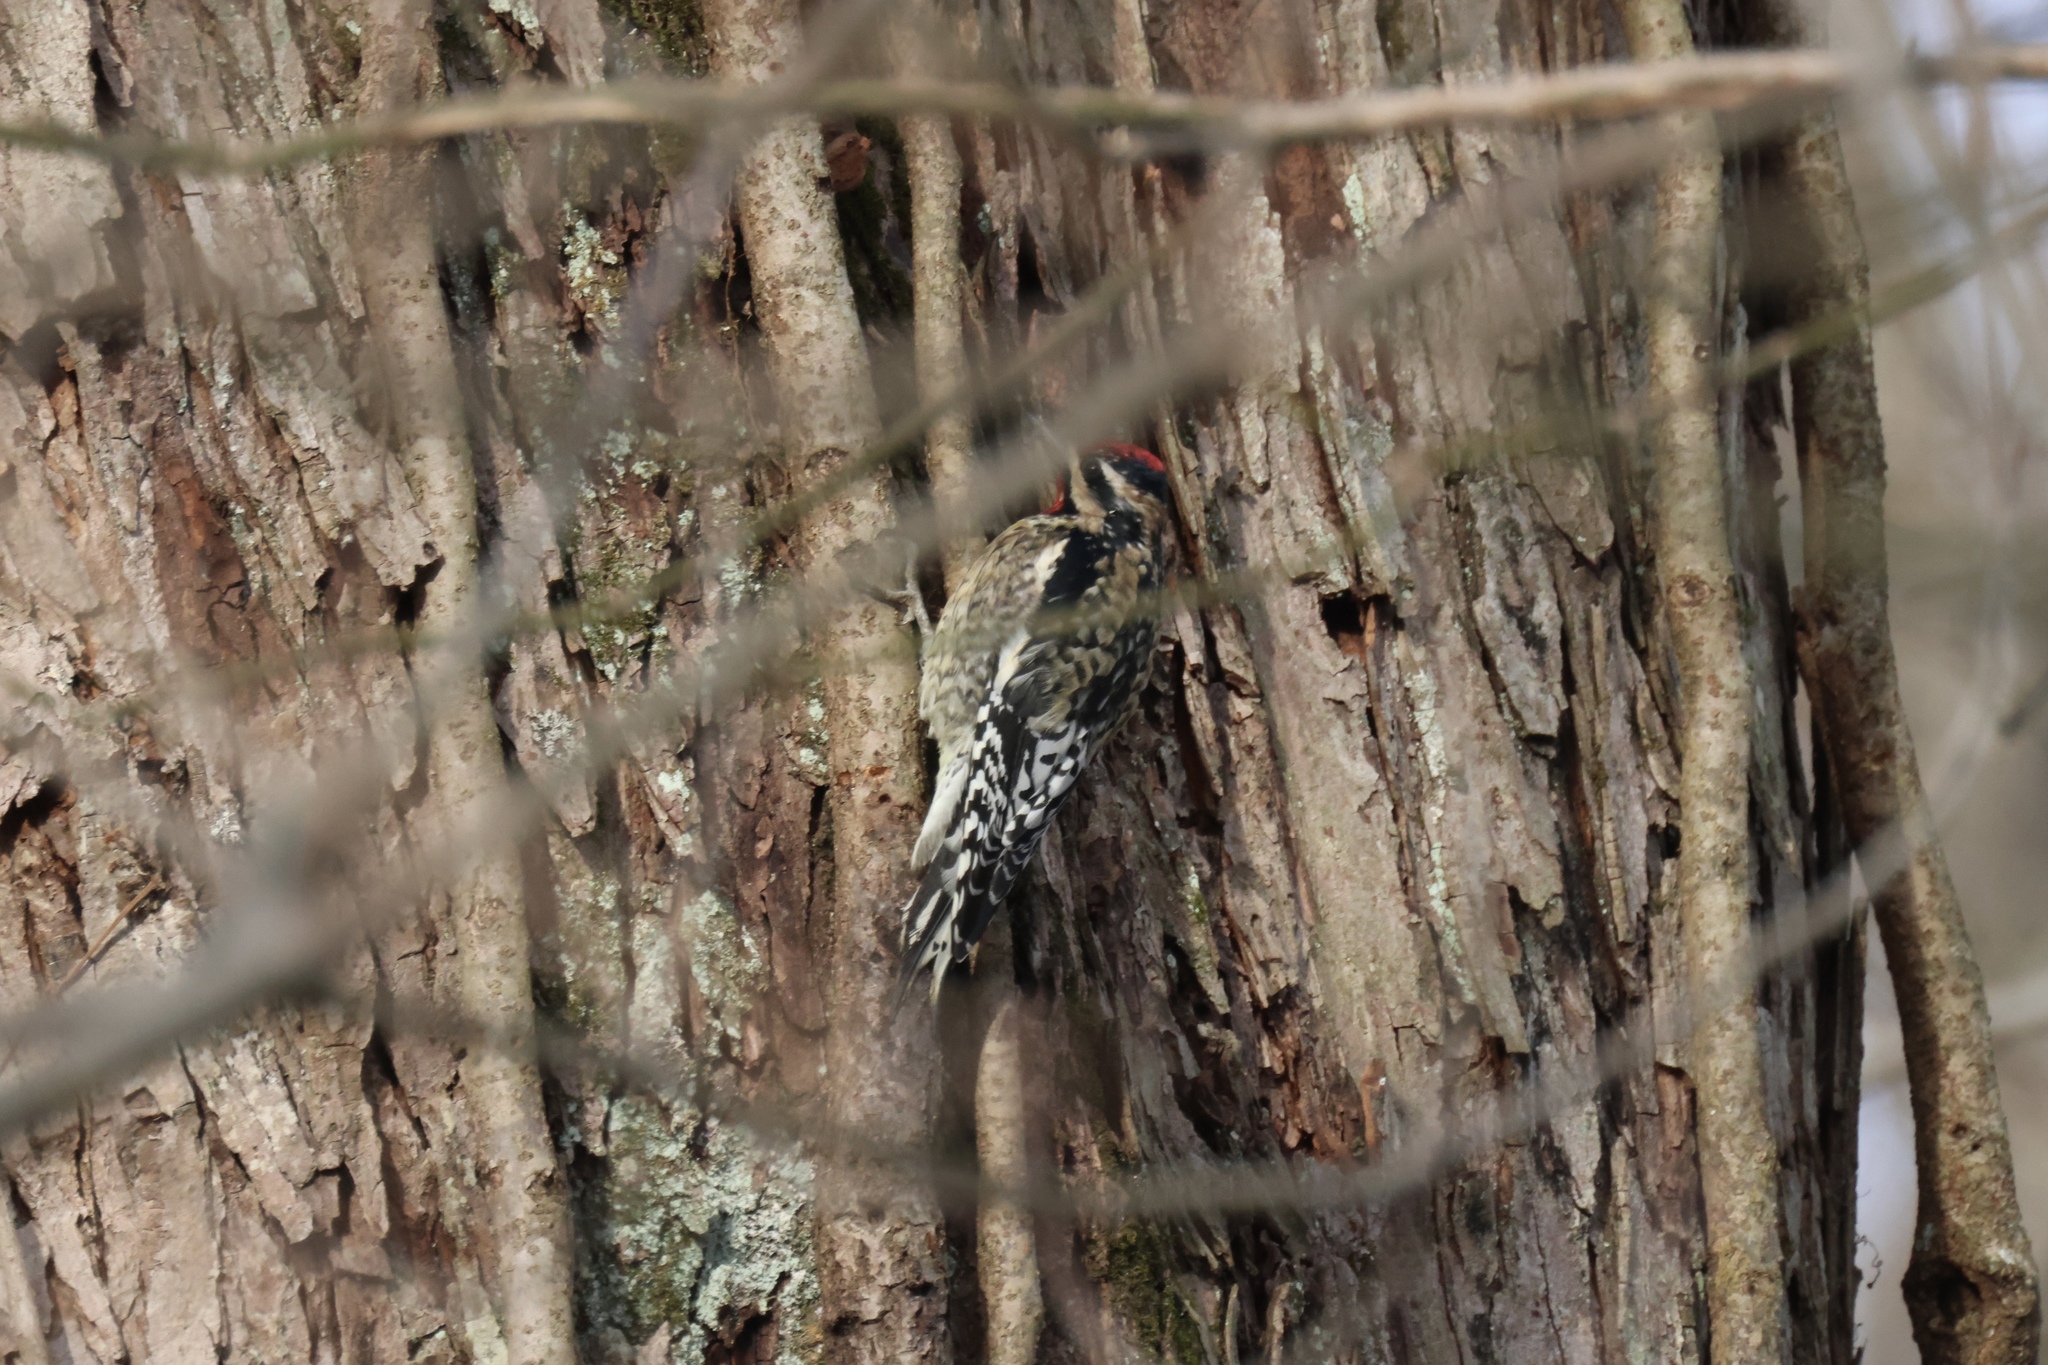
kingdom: Animalia
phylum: Chordata
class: Aves
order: Piciformes
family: Picidae
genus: Sphyrapicus
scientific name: Sphyrapicus varius
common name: Yellow-bellied sapsucker
